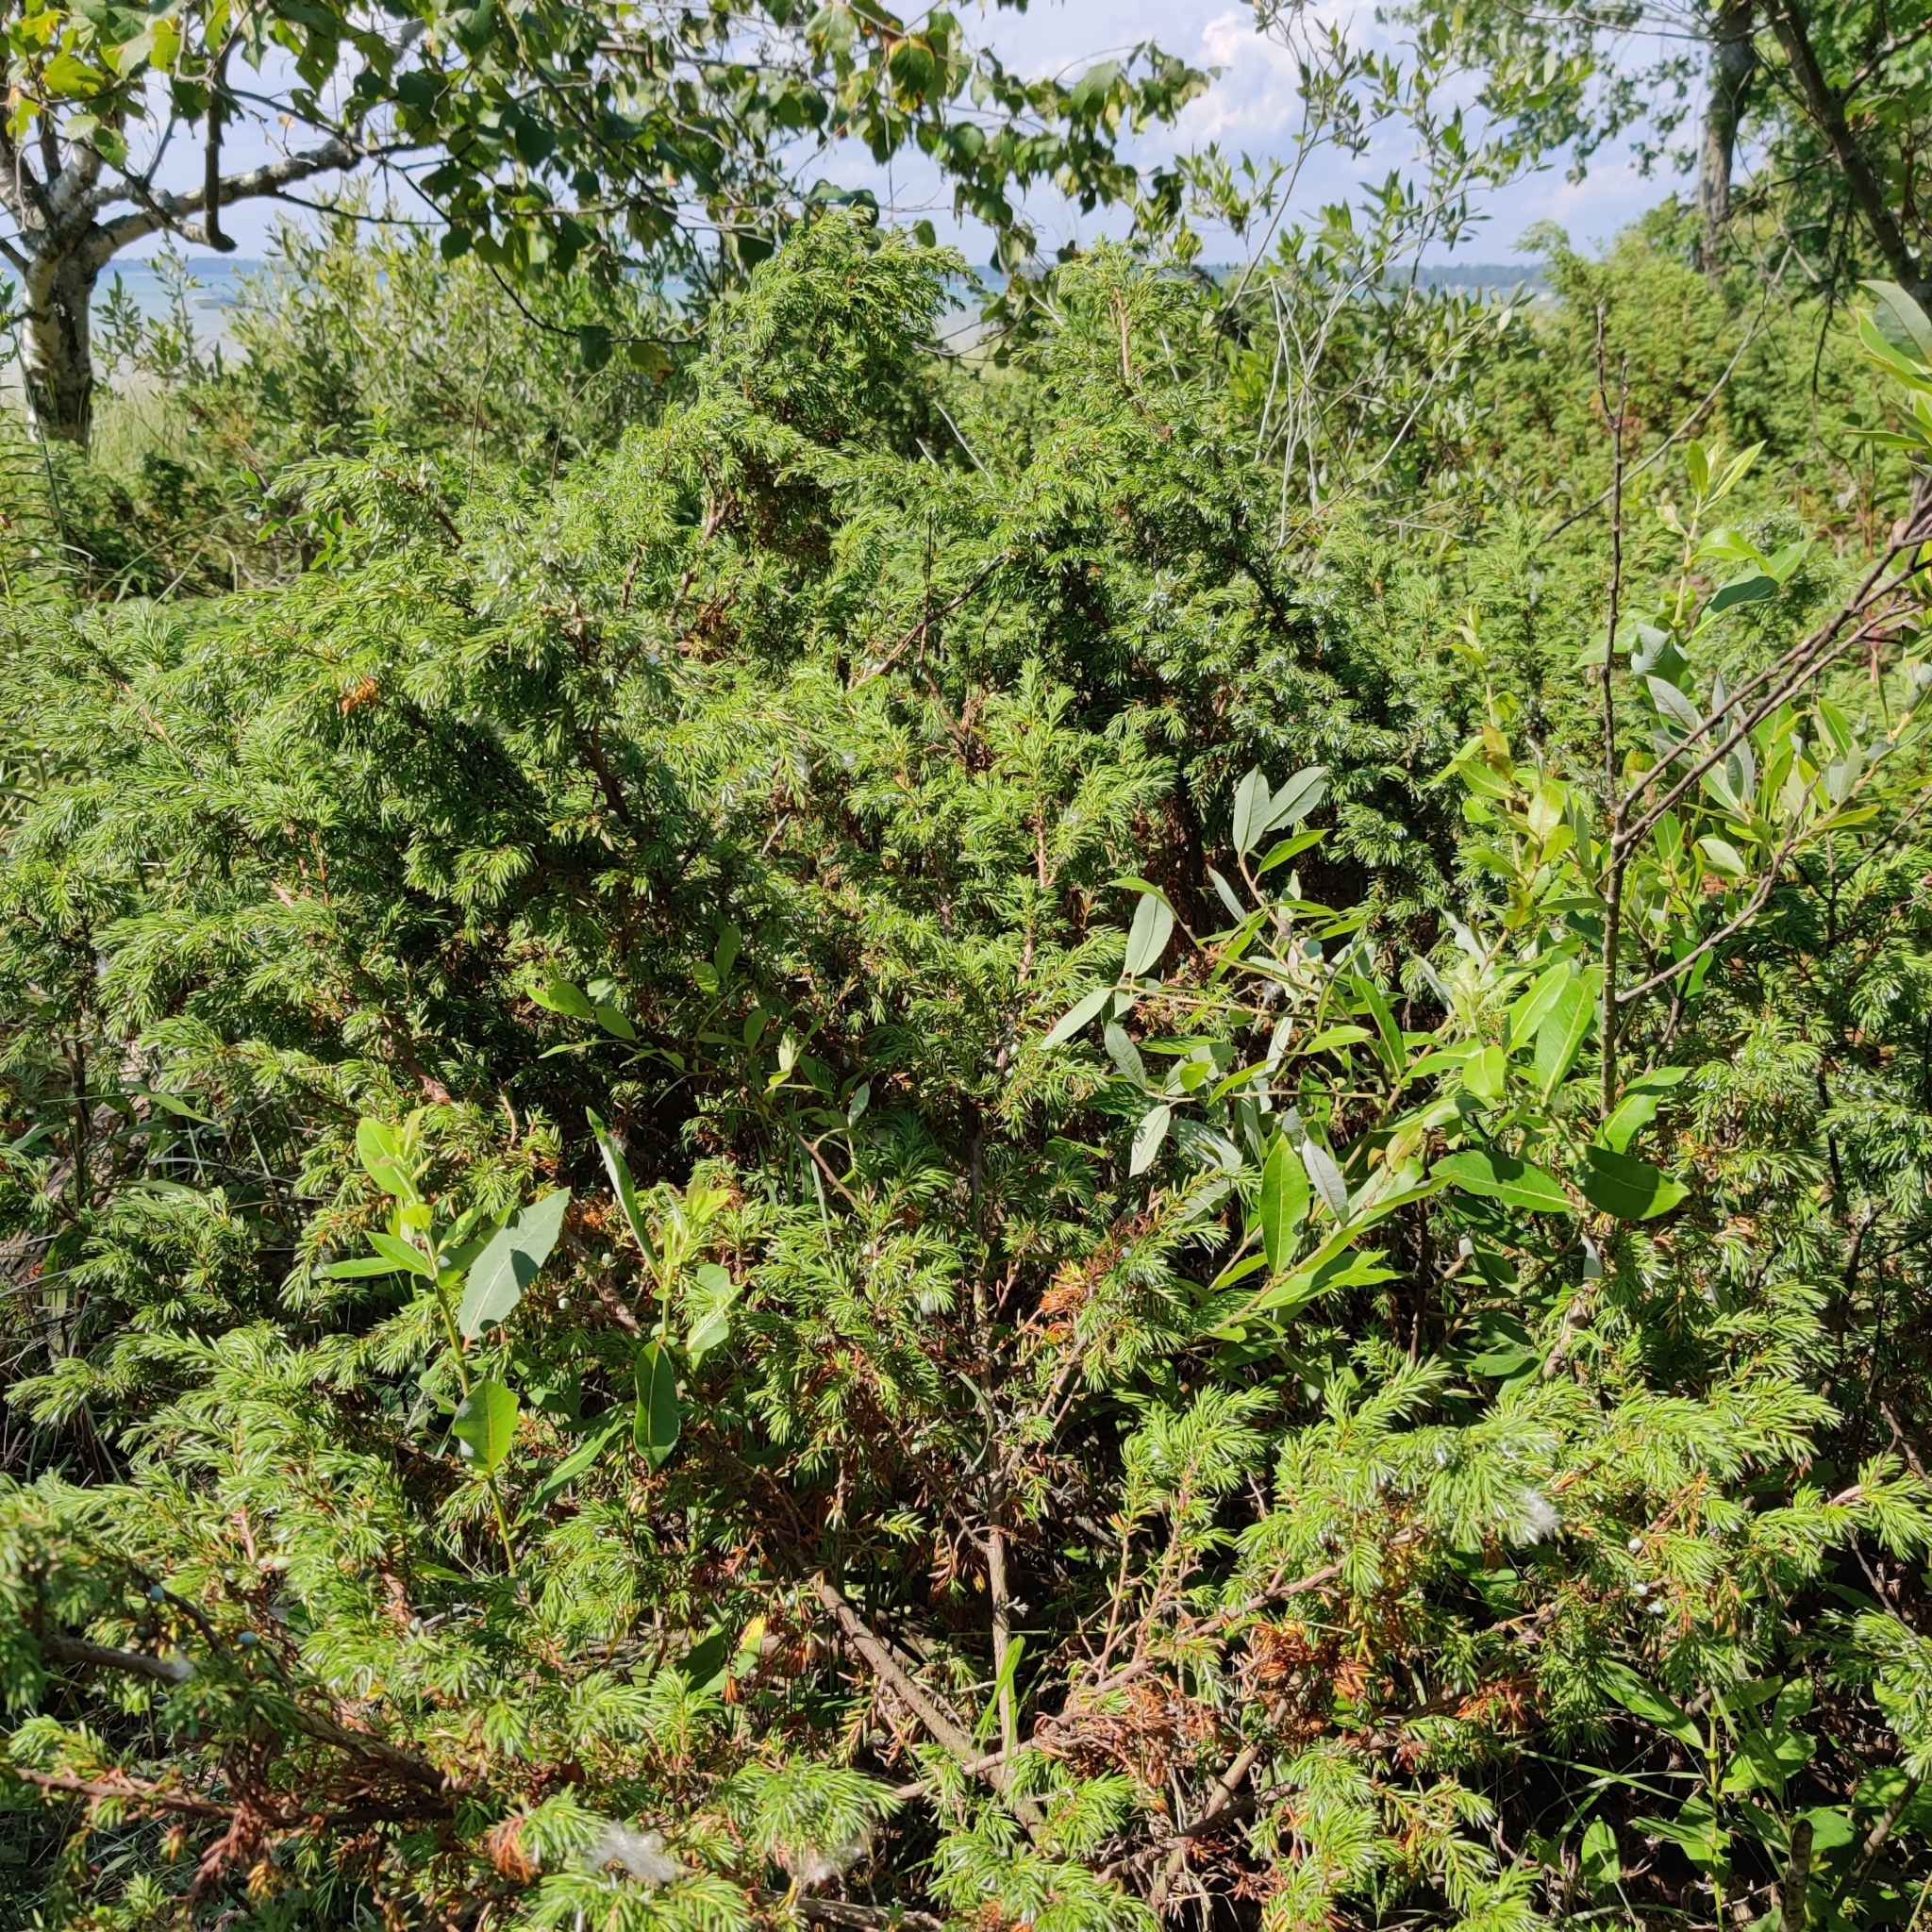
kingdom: Plantae
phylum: Tracheophyta
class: Pinopsida
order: Pinales
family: Cupressaceae
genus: Juniperus
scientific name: Juniperus communis
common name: Common juniper
